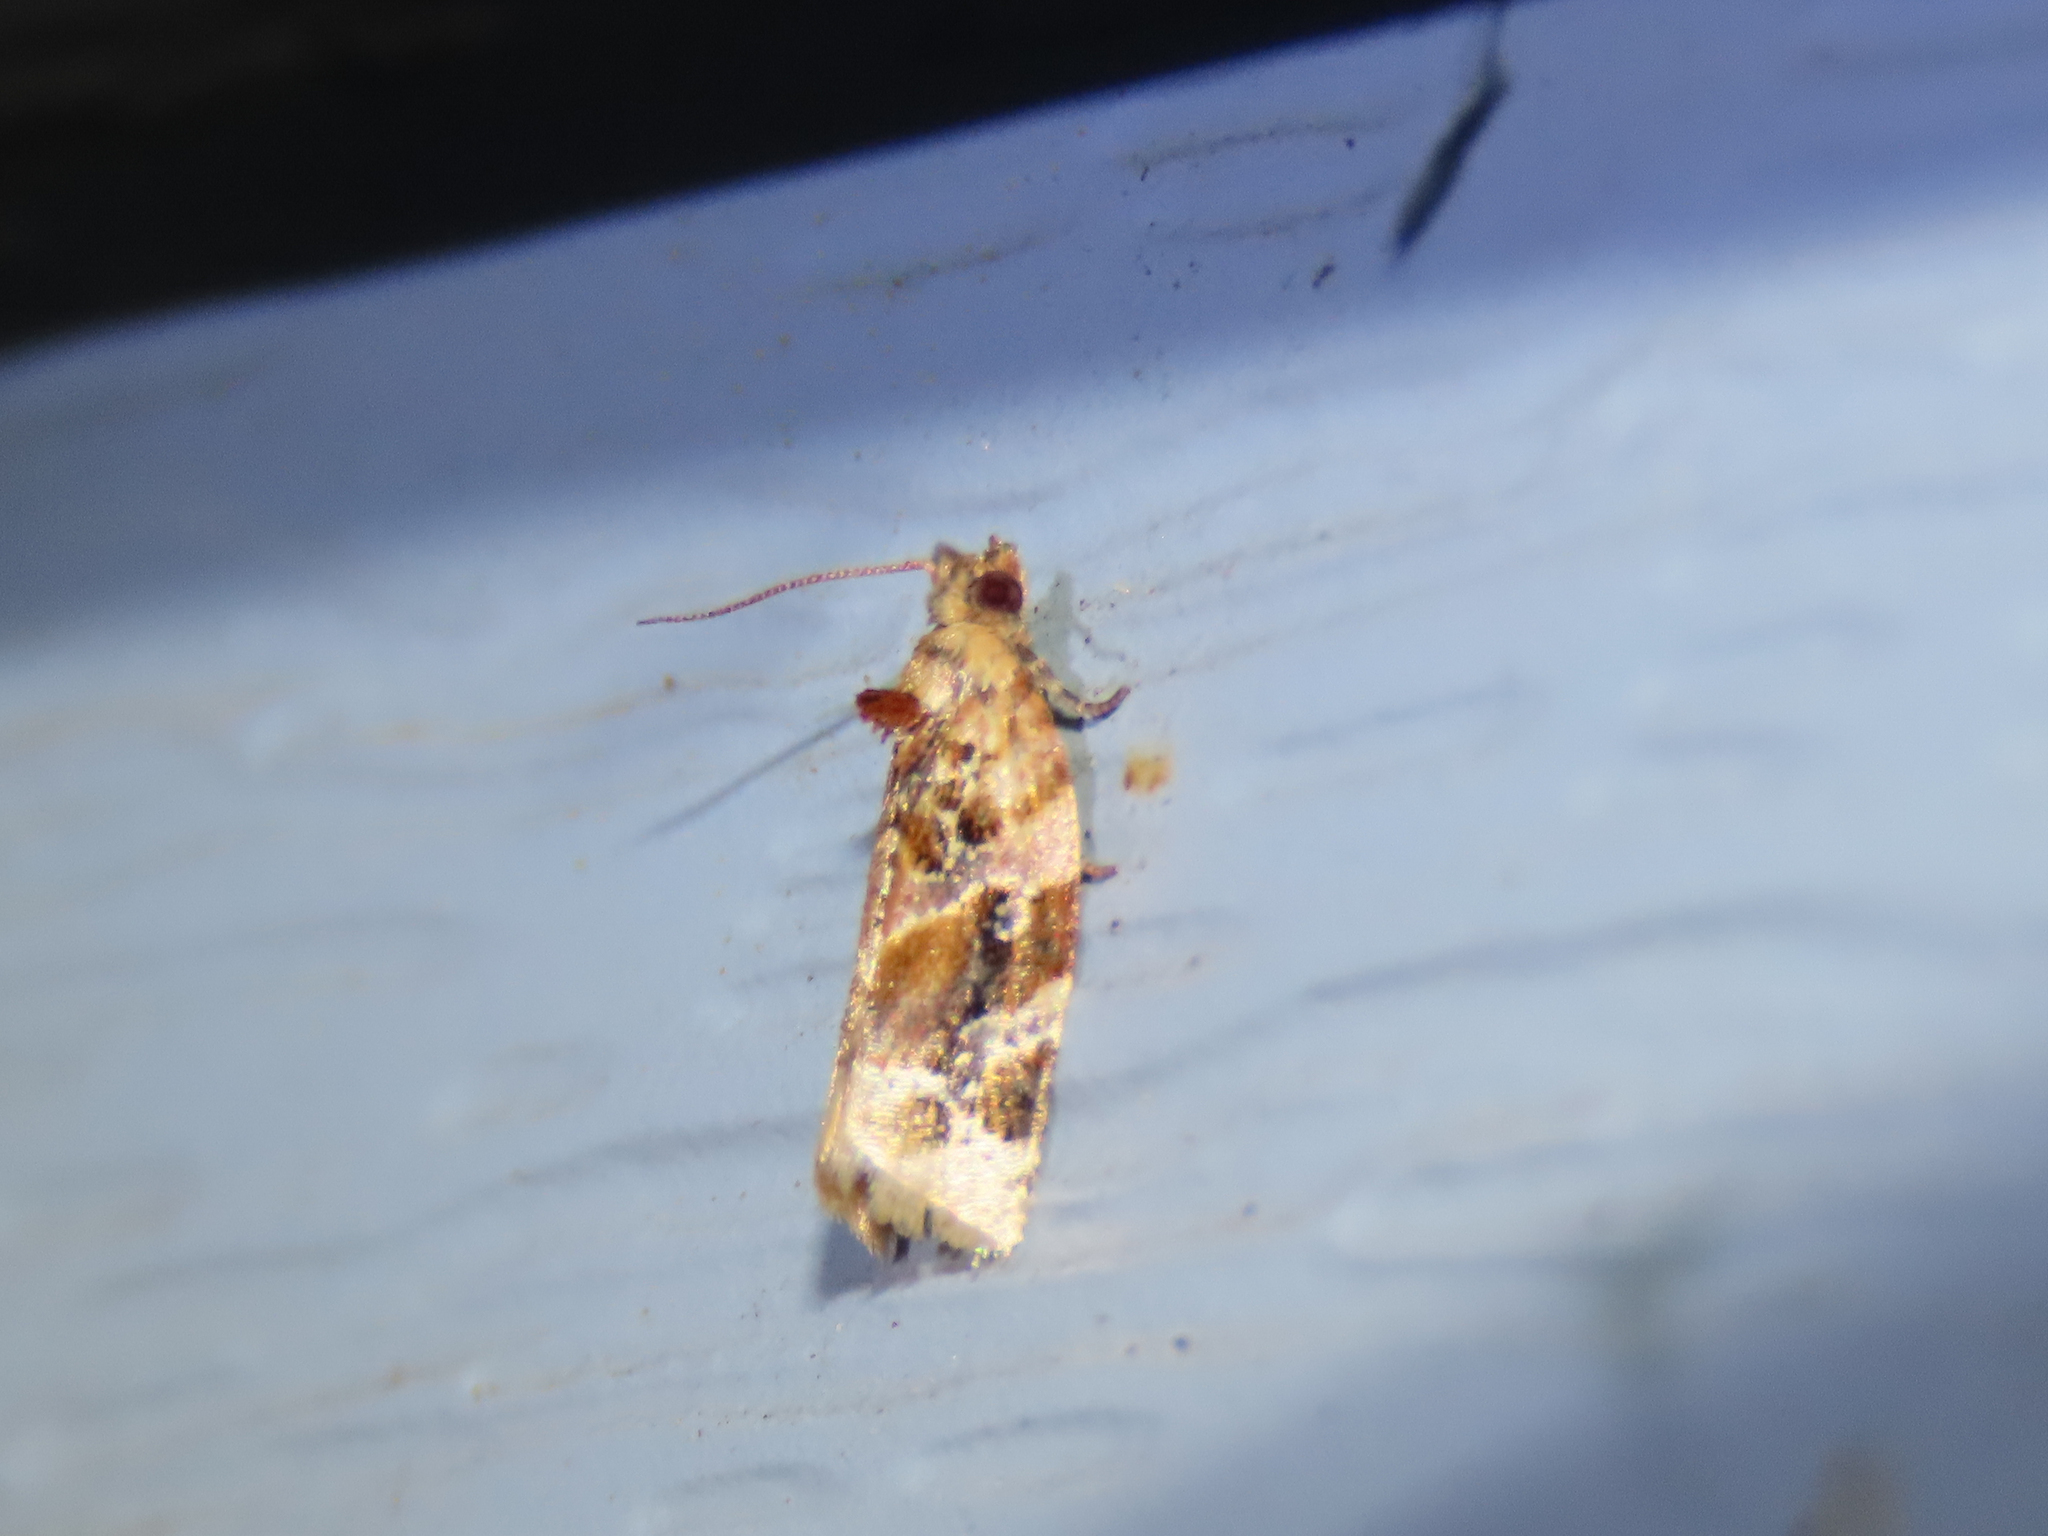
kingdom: Animalia
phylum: Arthropoda
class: Insecta
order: Lepidoptera
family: Tortricidae
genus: Argyrotaenia
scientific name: Argyrotaenia velutinana
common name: Red-banded leafroller moth
